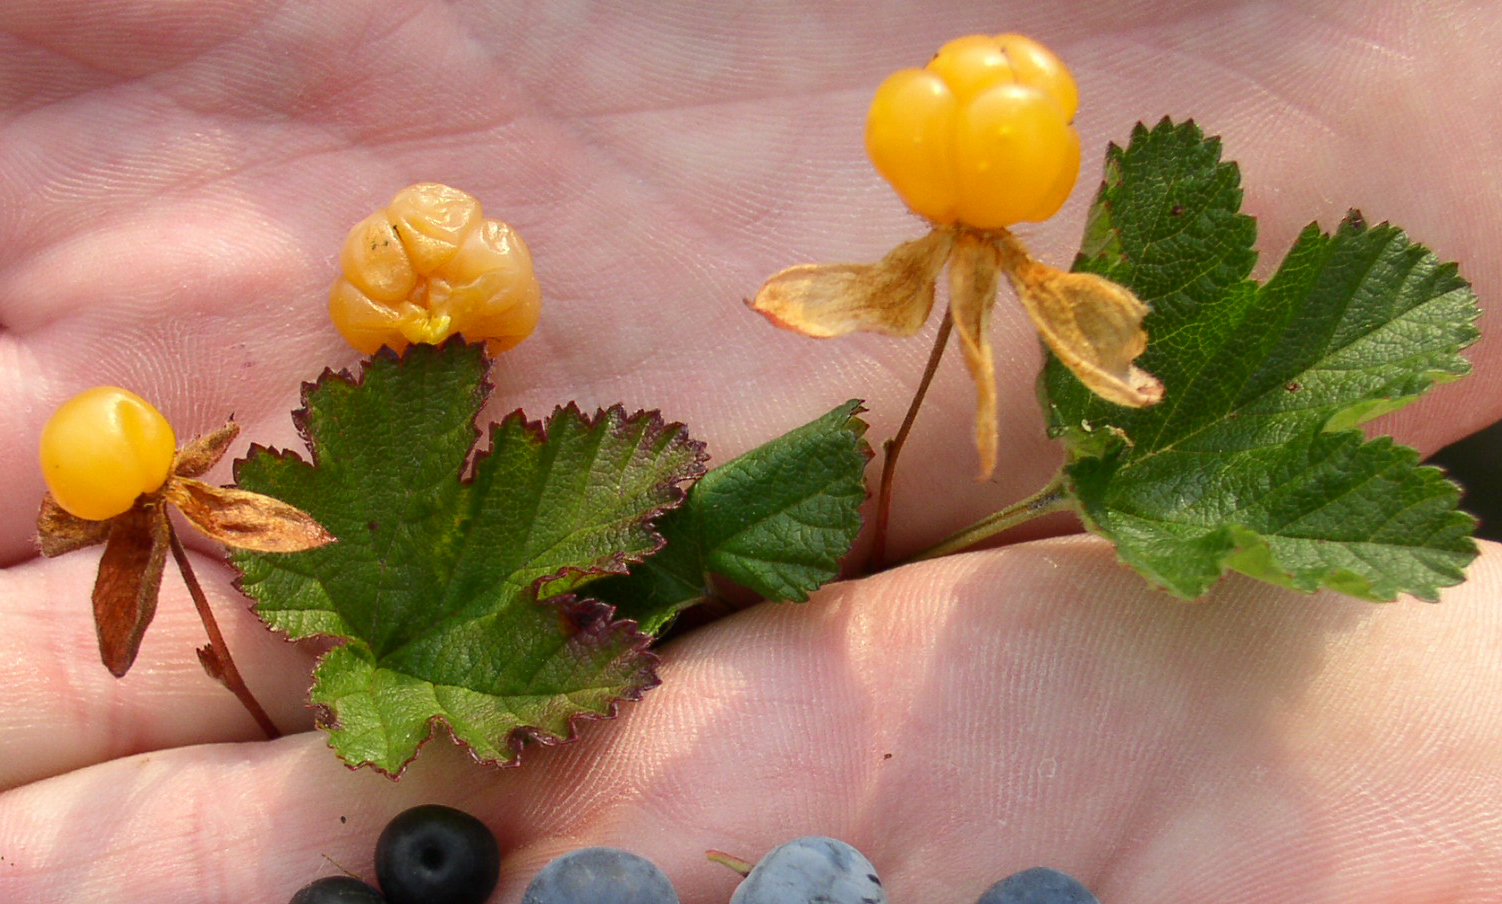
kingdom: Plantae
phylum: Tracheophyta
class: Magnoliopsida
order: Rosales
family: Rosaceae
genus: Rubus
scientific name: Rubus chamaemorus
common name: Cloudberry
